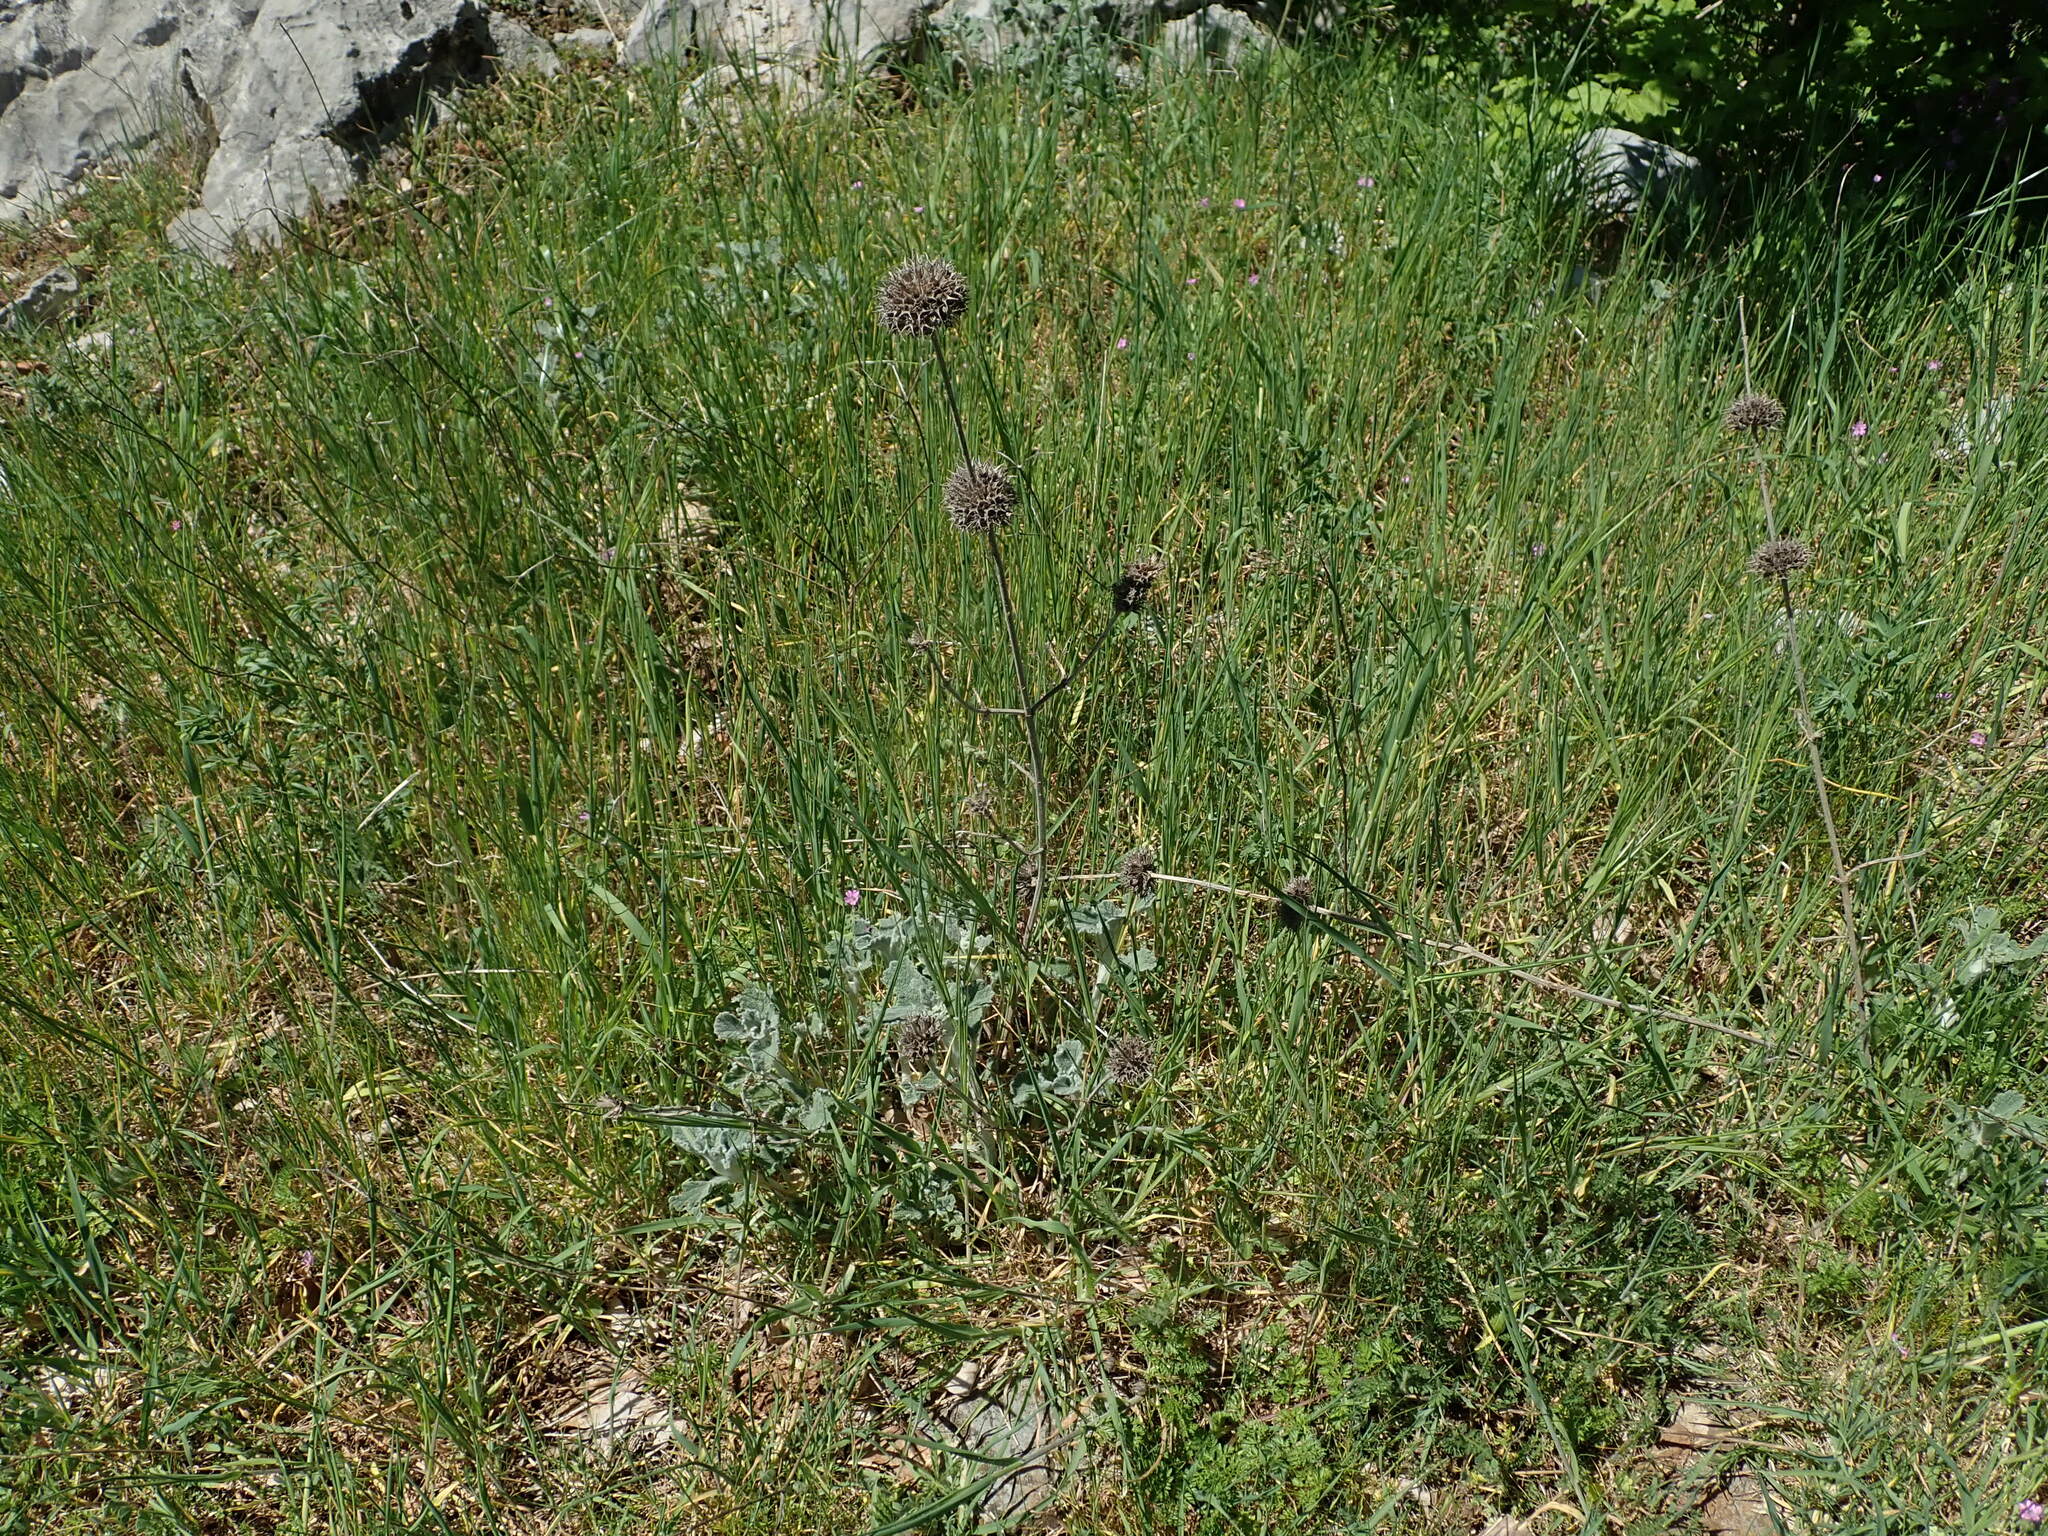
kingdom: Plantae
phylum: Tracheophyta
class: Magnoliopsida
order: Lamiales
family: Lamiaceae
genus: Marrubium
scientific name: Marrubium incanum
